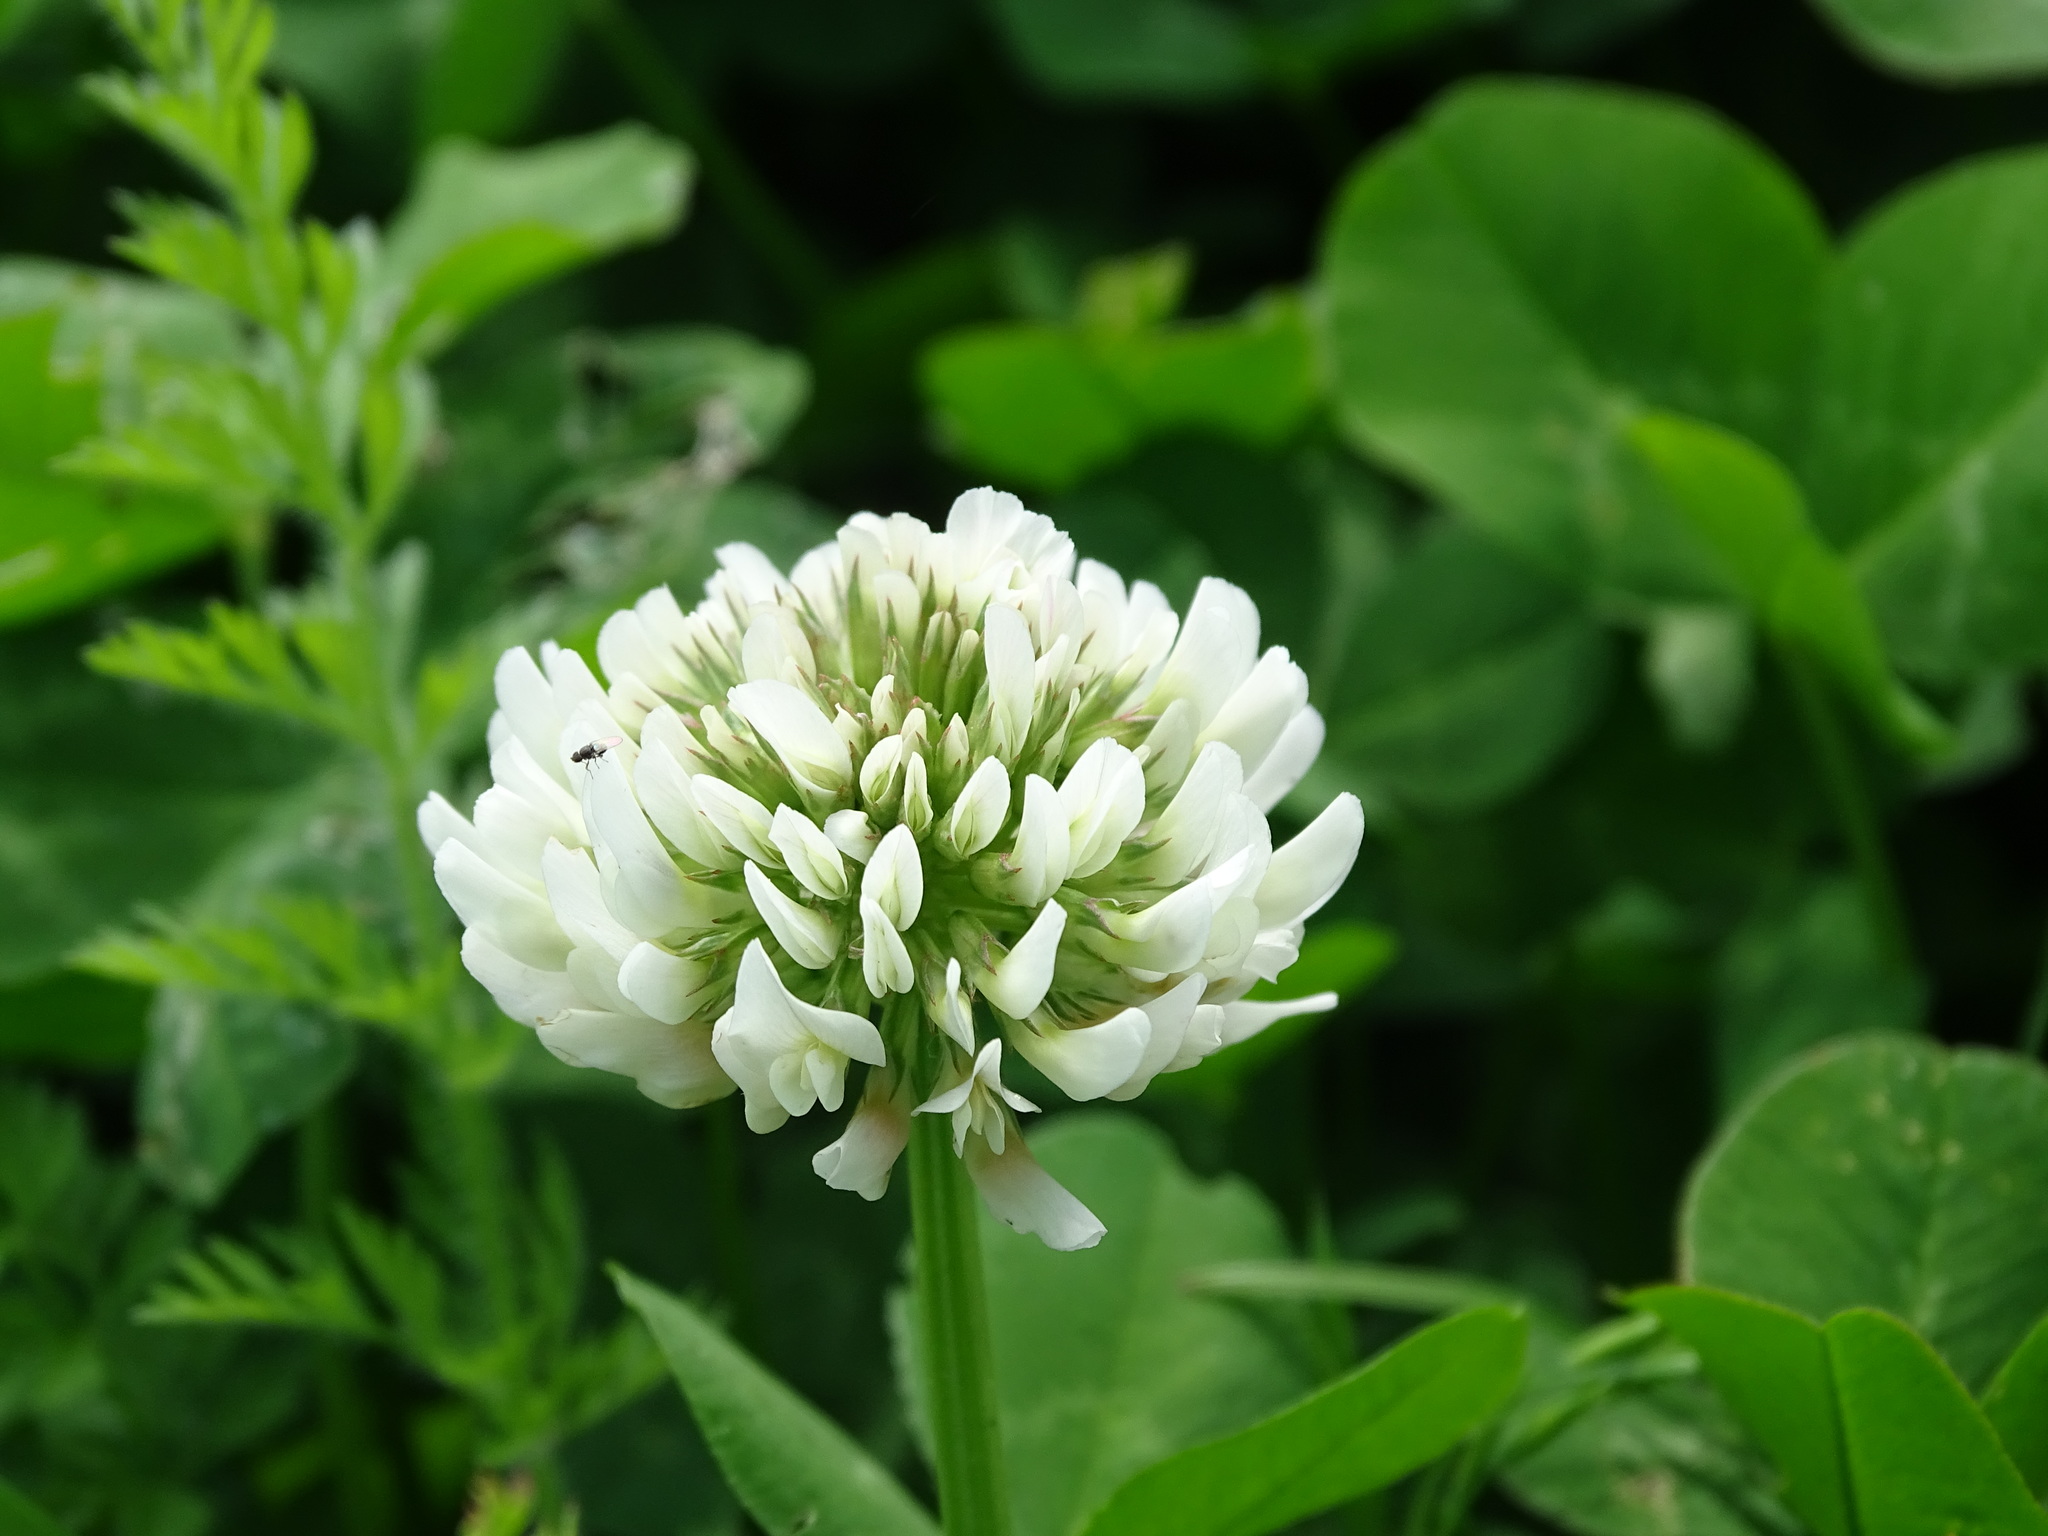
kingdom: Plantae
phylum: Tracheophyta
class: Magnoliopsida
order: Fabales
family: Fabaceae
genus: Trifolium
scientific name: Trifolium repens
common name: White clover
